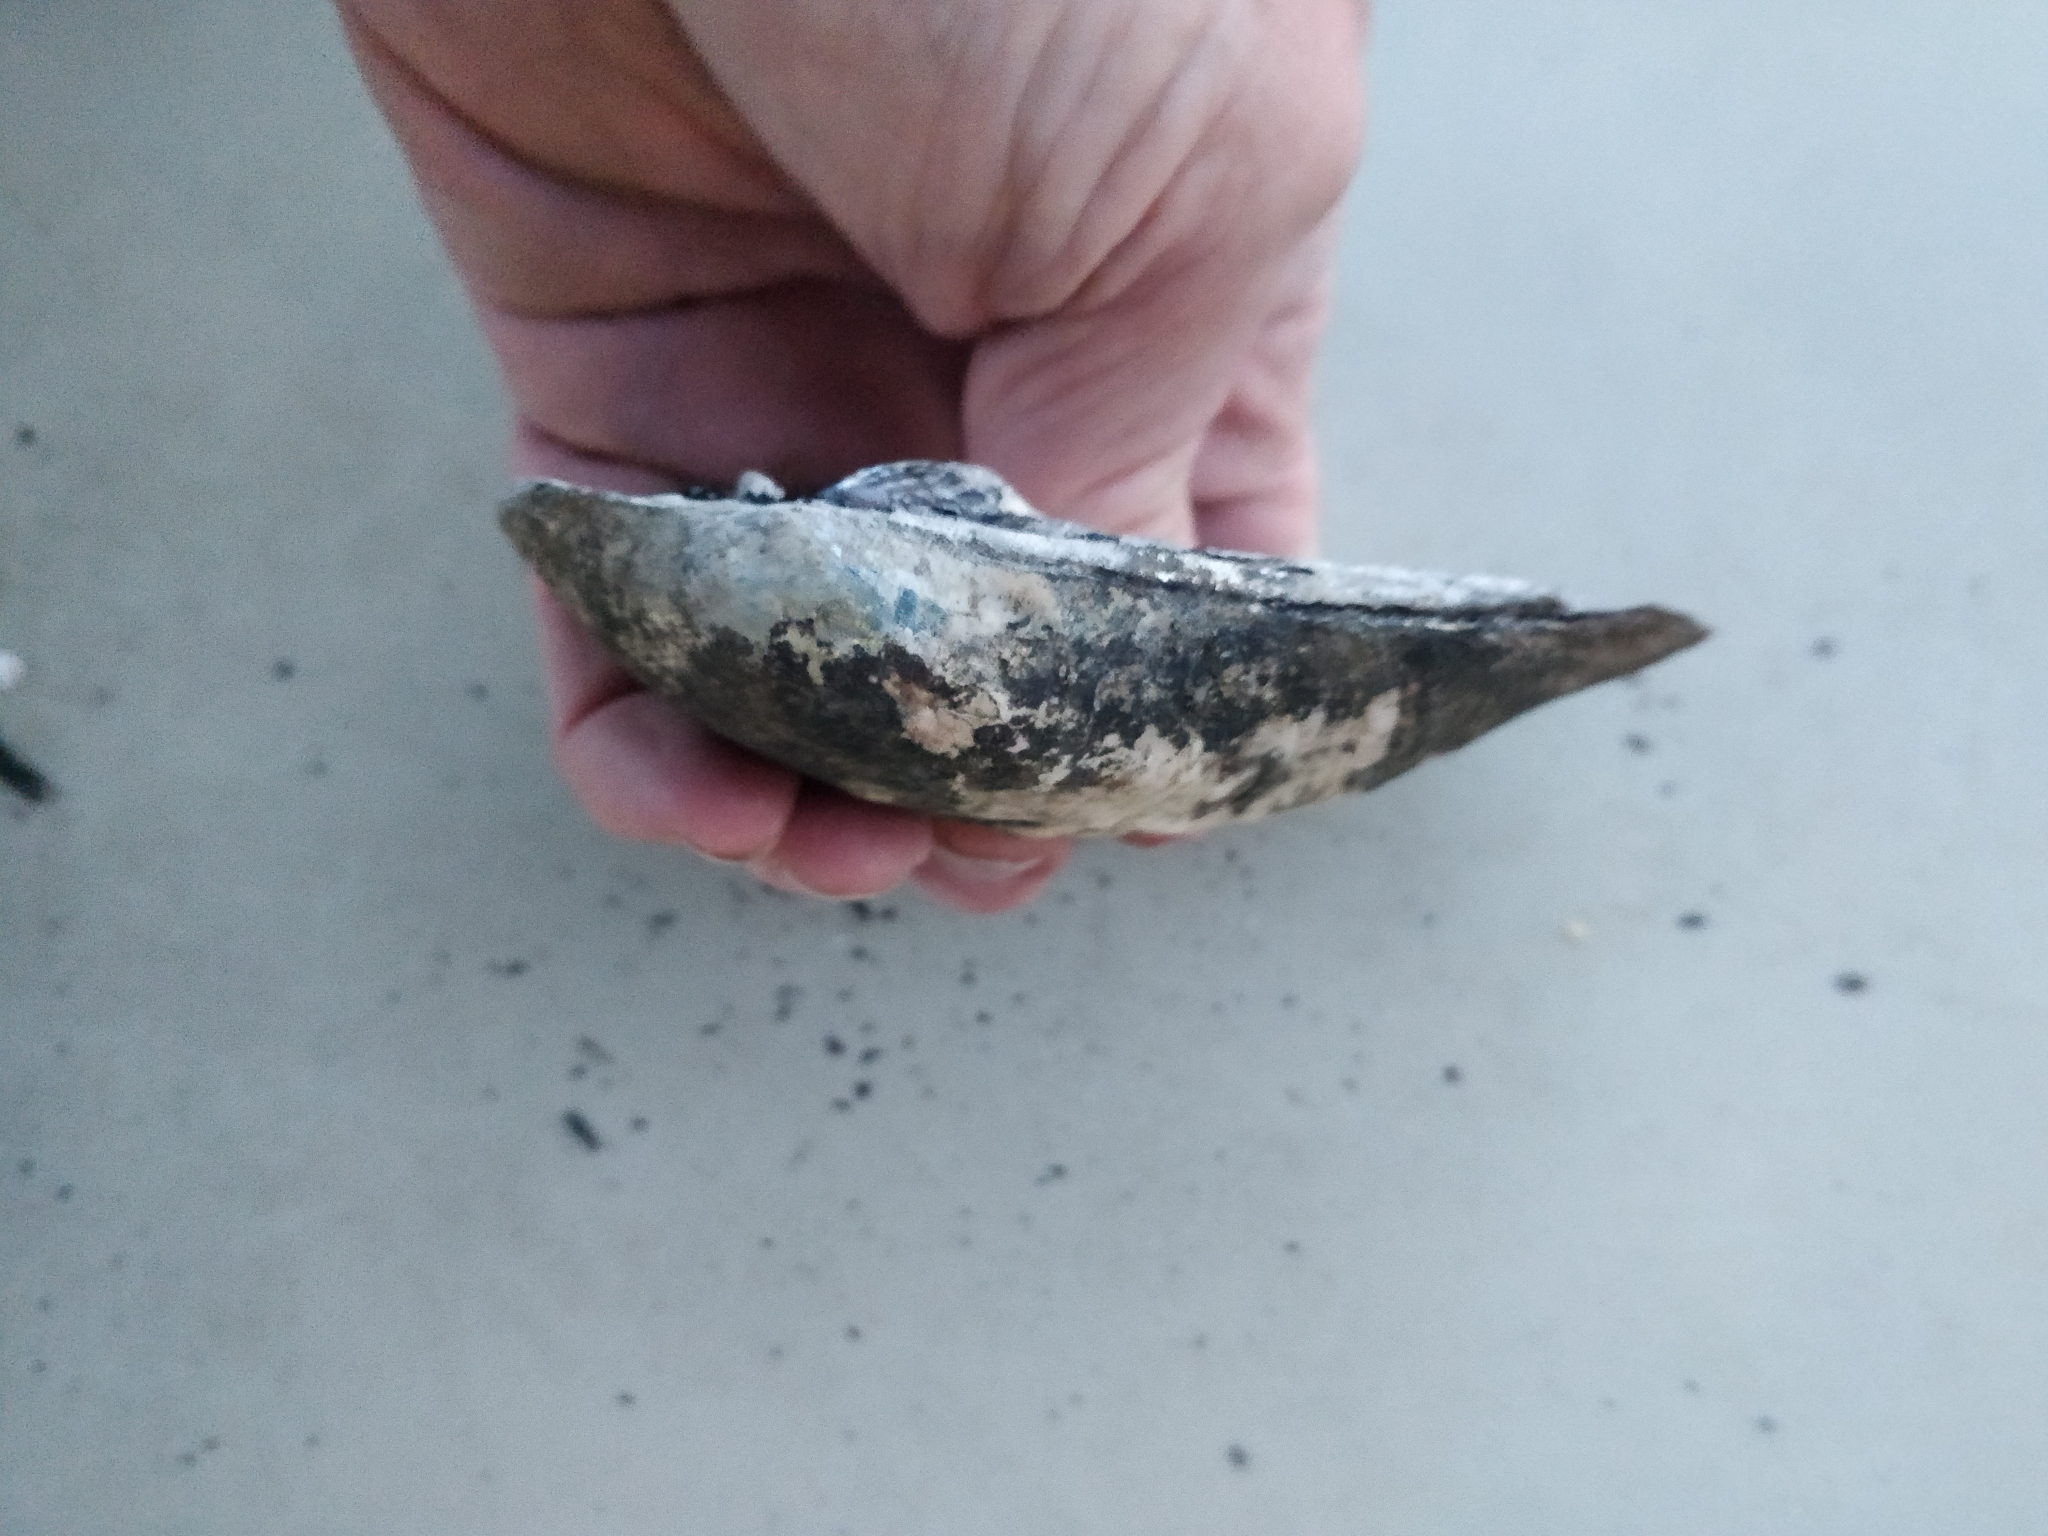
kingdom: Animalia
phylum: Mollusca
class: Bivalvia
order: Unionida
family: Unionidae
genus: Amblema
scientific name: Amblema plicata
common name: Threeridge
